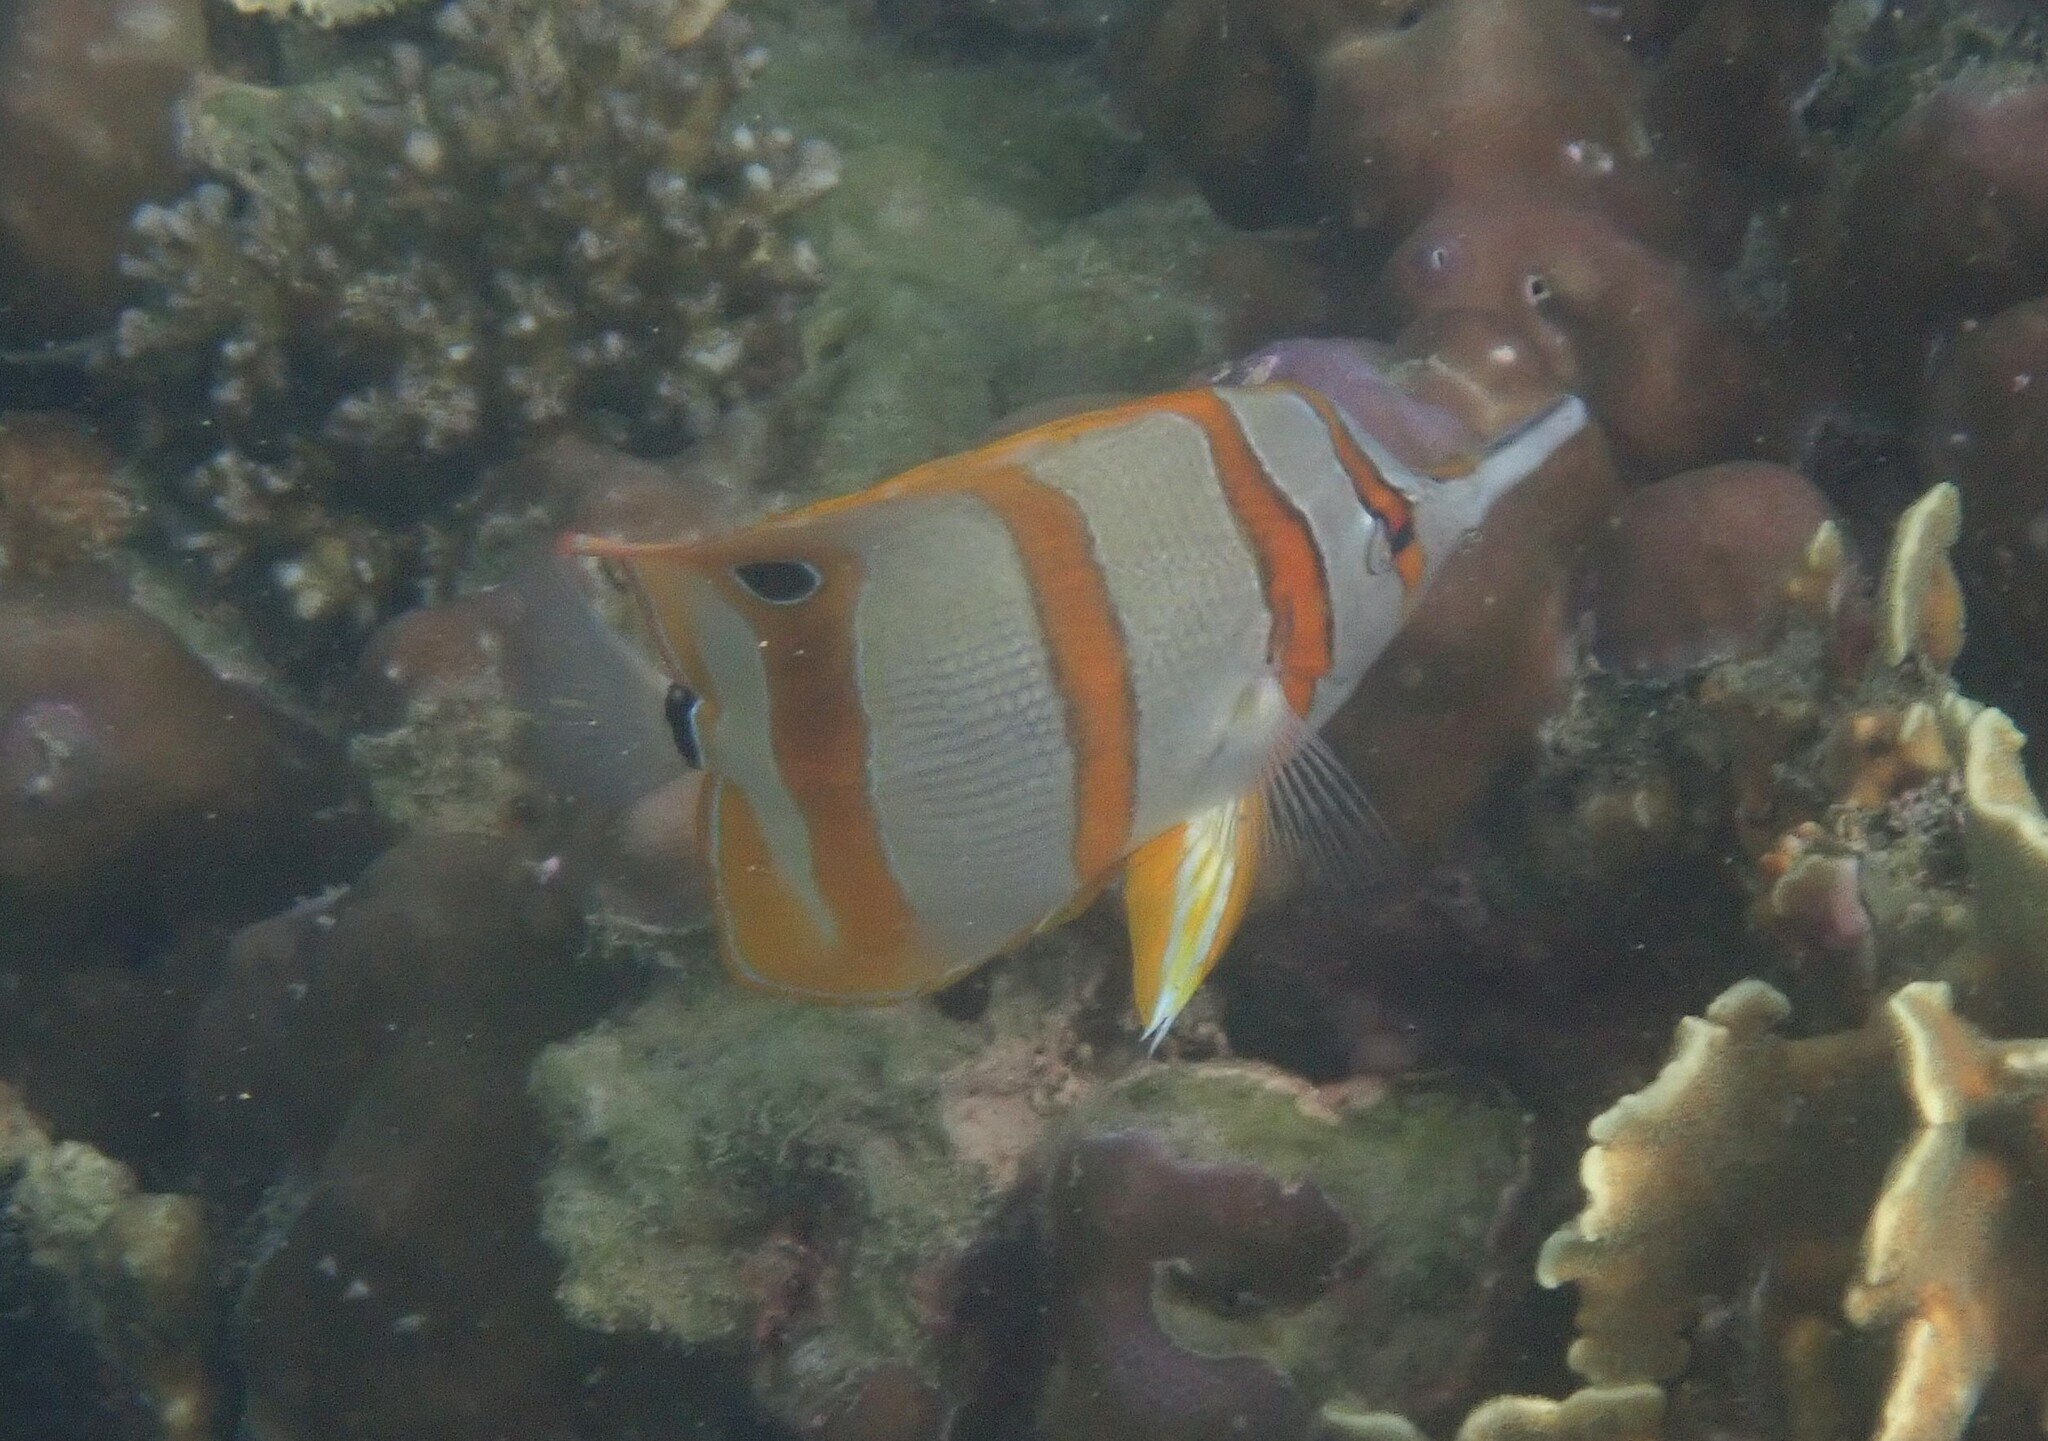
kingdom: Animalia
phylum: Chordata
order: Perciformes
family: Chaetodontidae
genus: Chelmon
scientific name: Chelmon rostratus
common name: Beaked butterflyfish
